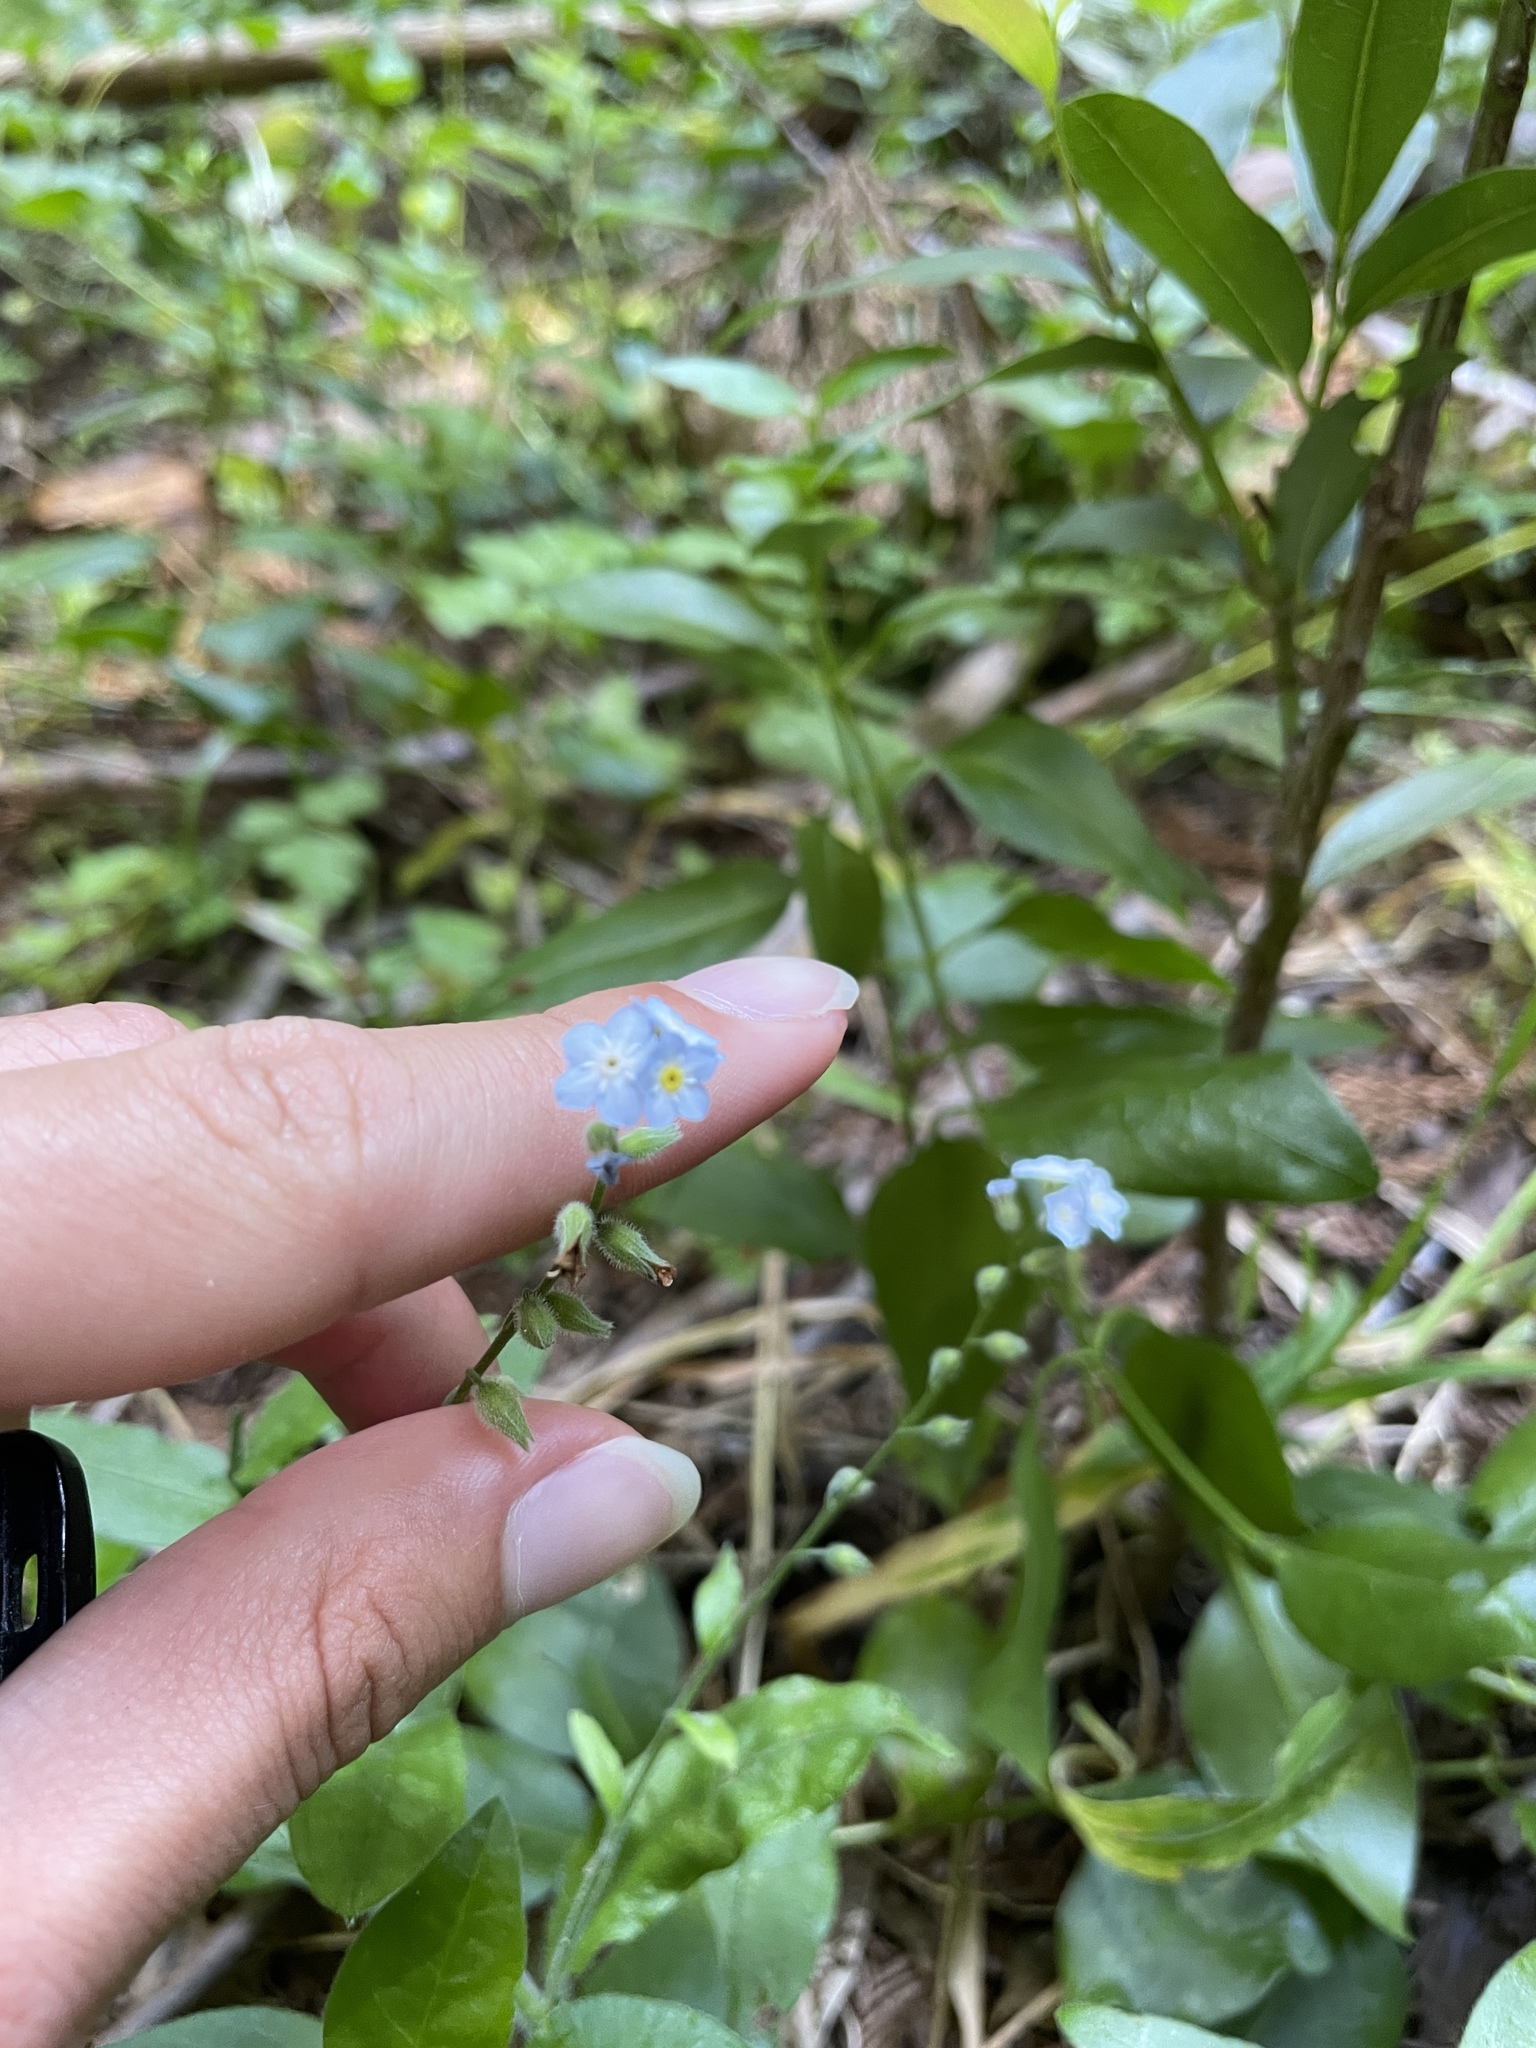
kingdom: Plantae
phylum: Tracheophyta
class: Magnoliopsida
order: Boraginales
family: Boraginaceae
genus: Myosotis
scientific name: Myosotis latifolia
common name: Broadleaf forget-me-not
